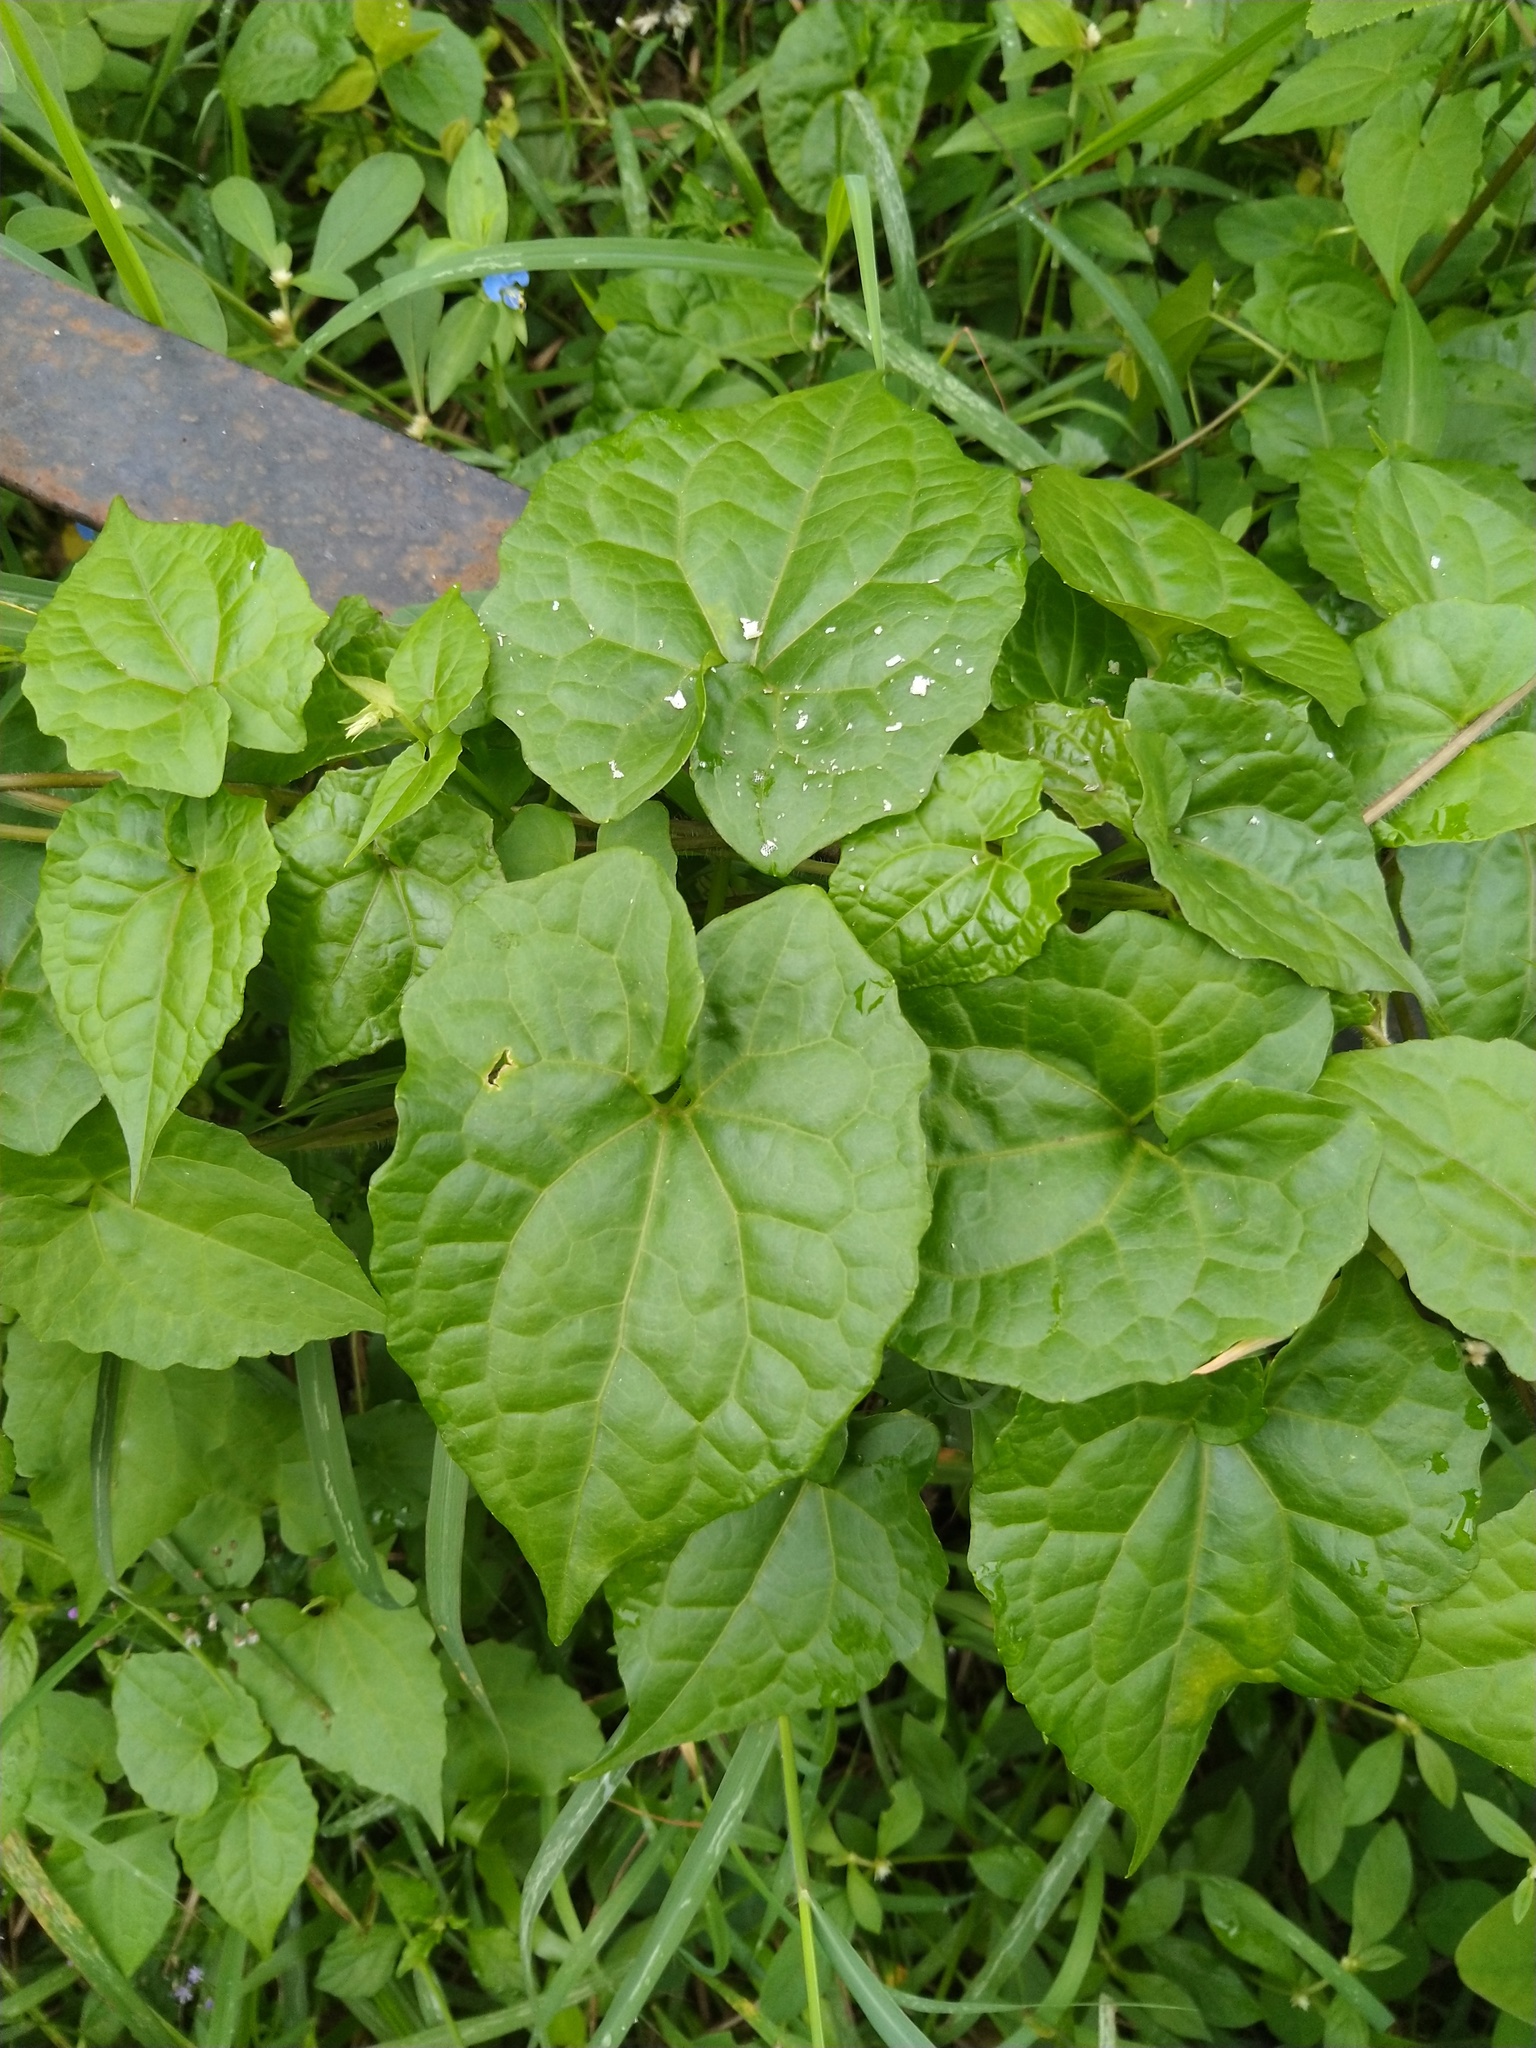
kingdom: Plantae
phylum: Tracheophyta
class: Magnoliopsida
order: Asterales
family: Asteraceae
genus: Mikania
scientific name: Mikania micrantha
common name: Mile-a-minute
